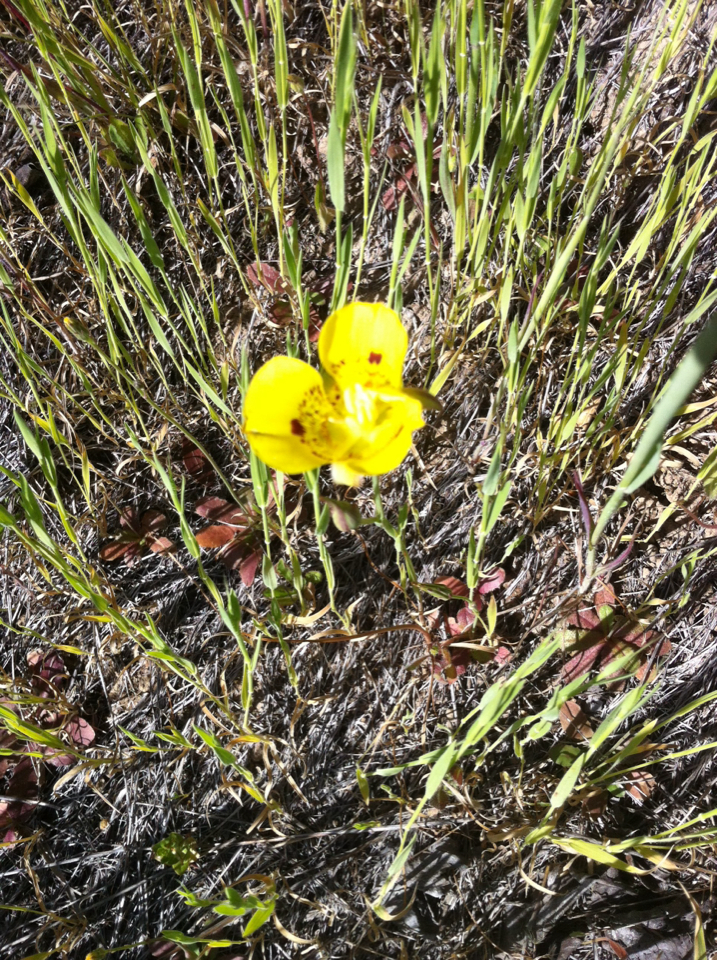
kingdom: Plantae
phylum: Tracheophyta
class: Liliopsida
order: Liliales
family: Liliaceae
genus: Calochortus
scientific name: Calochortus luteus
